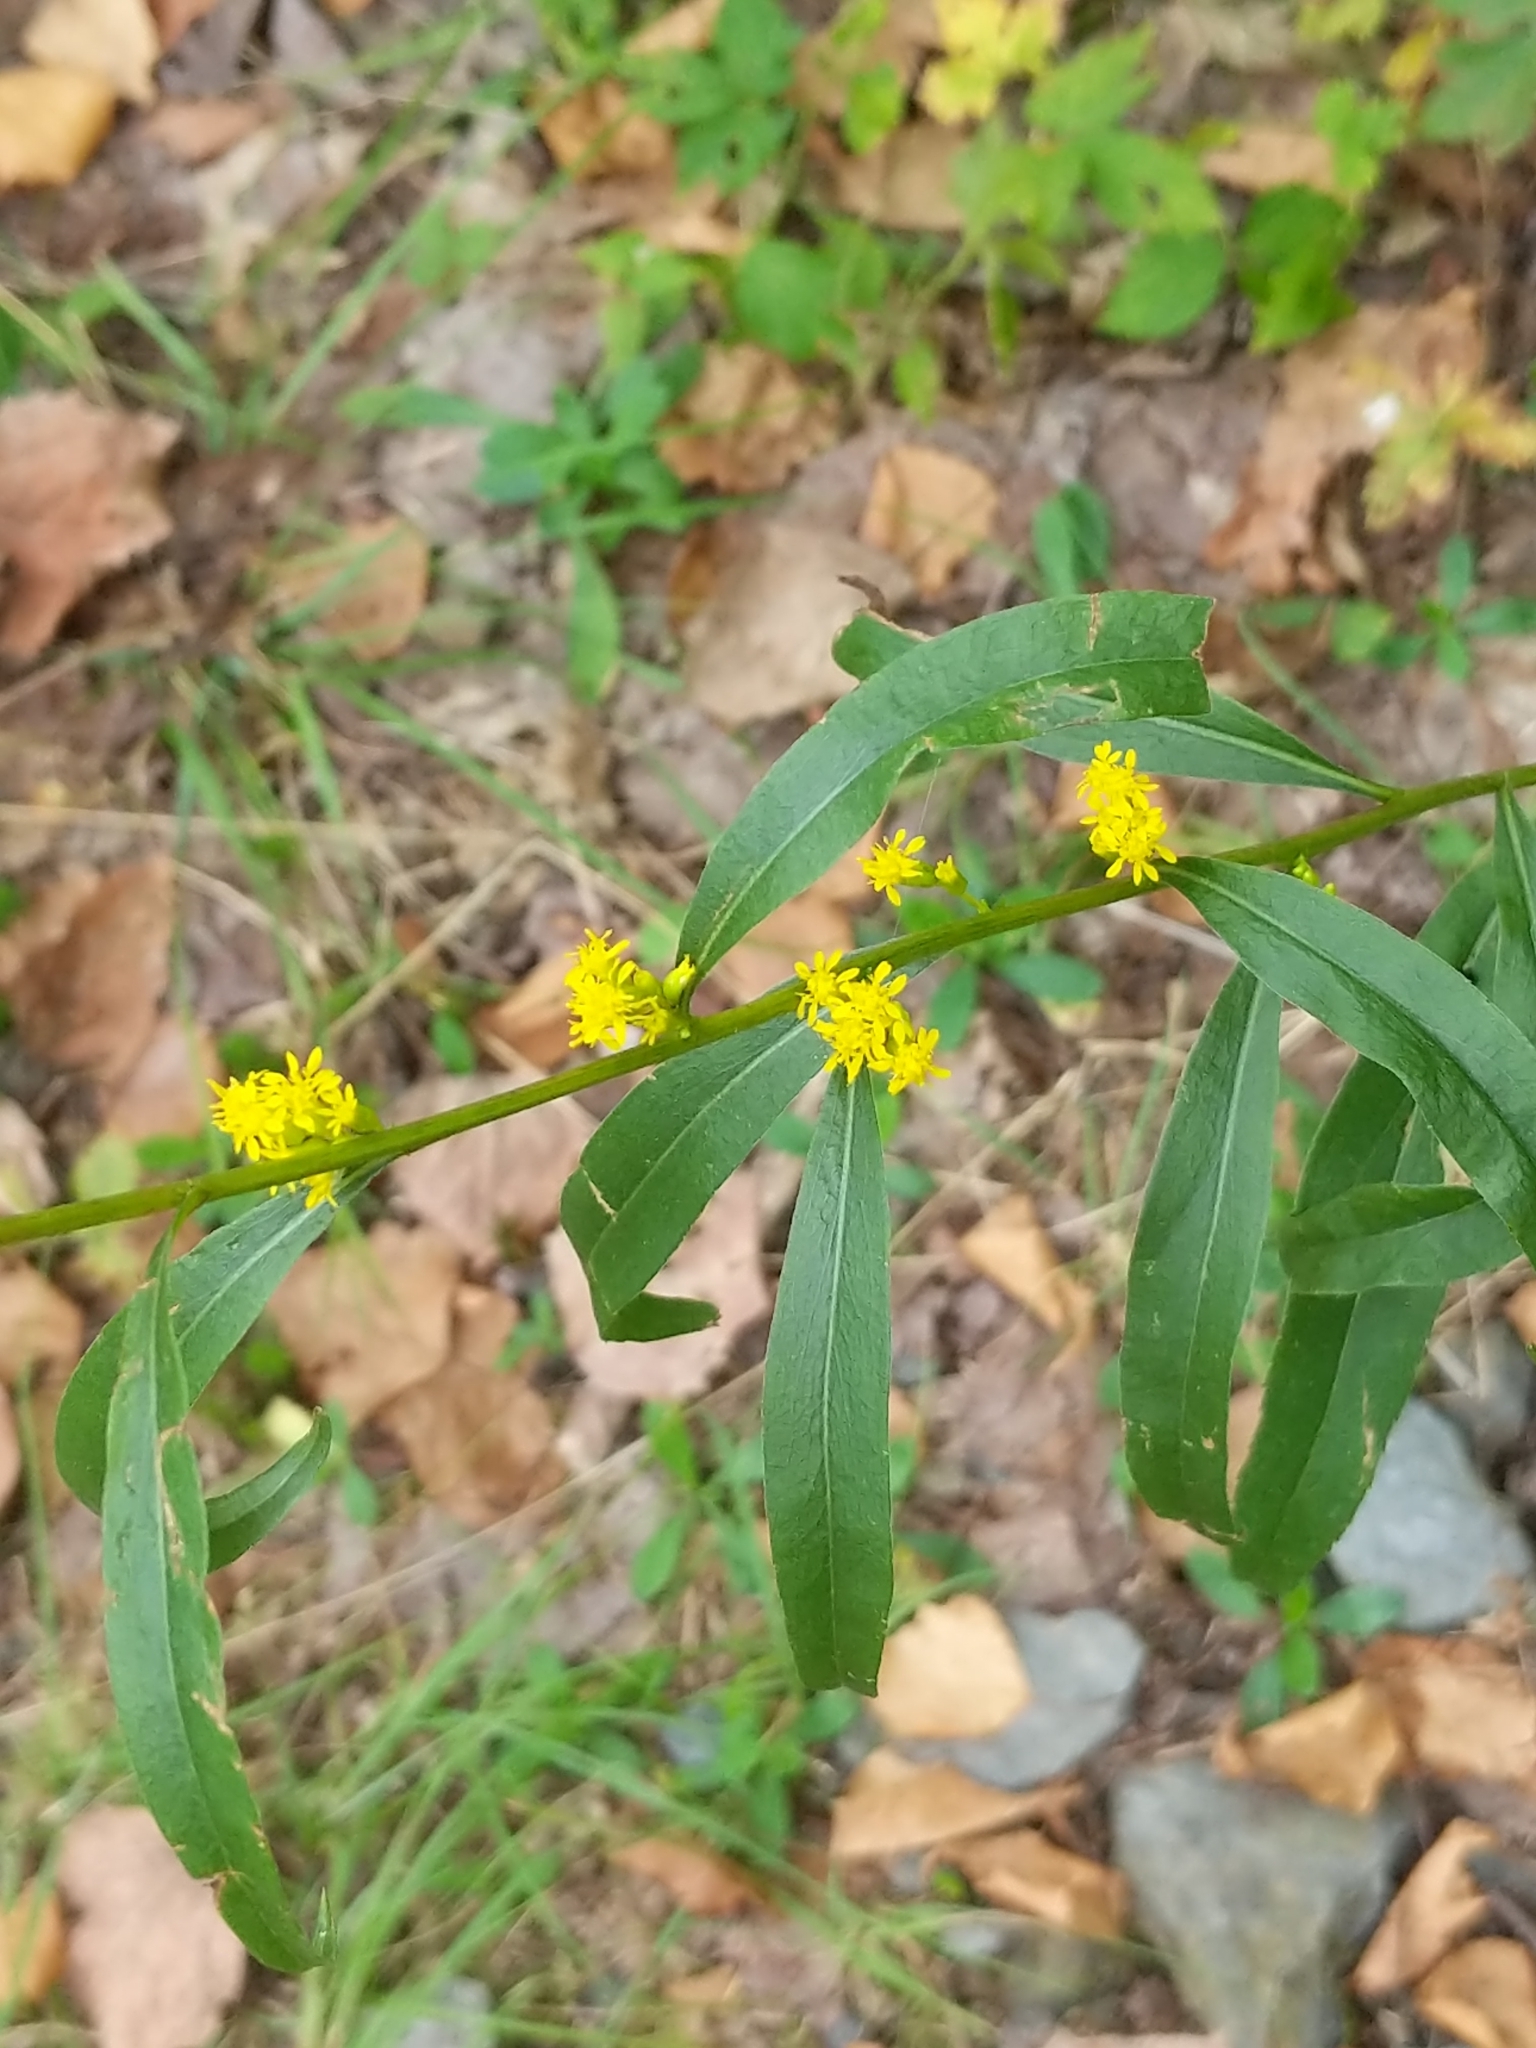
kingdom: Plantae
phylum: Tracheophyta
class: Magnoliopsida
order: Asterales
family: Asteraceae
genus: Solidago
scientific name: Solidago caesia
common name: Woodland goldenrod
